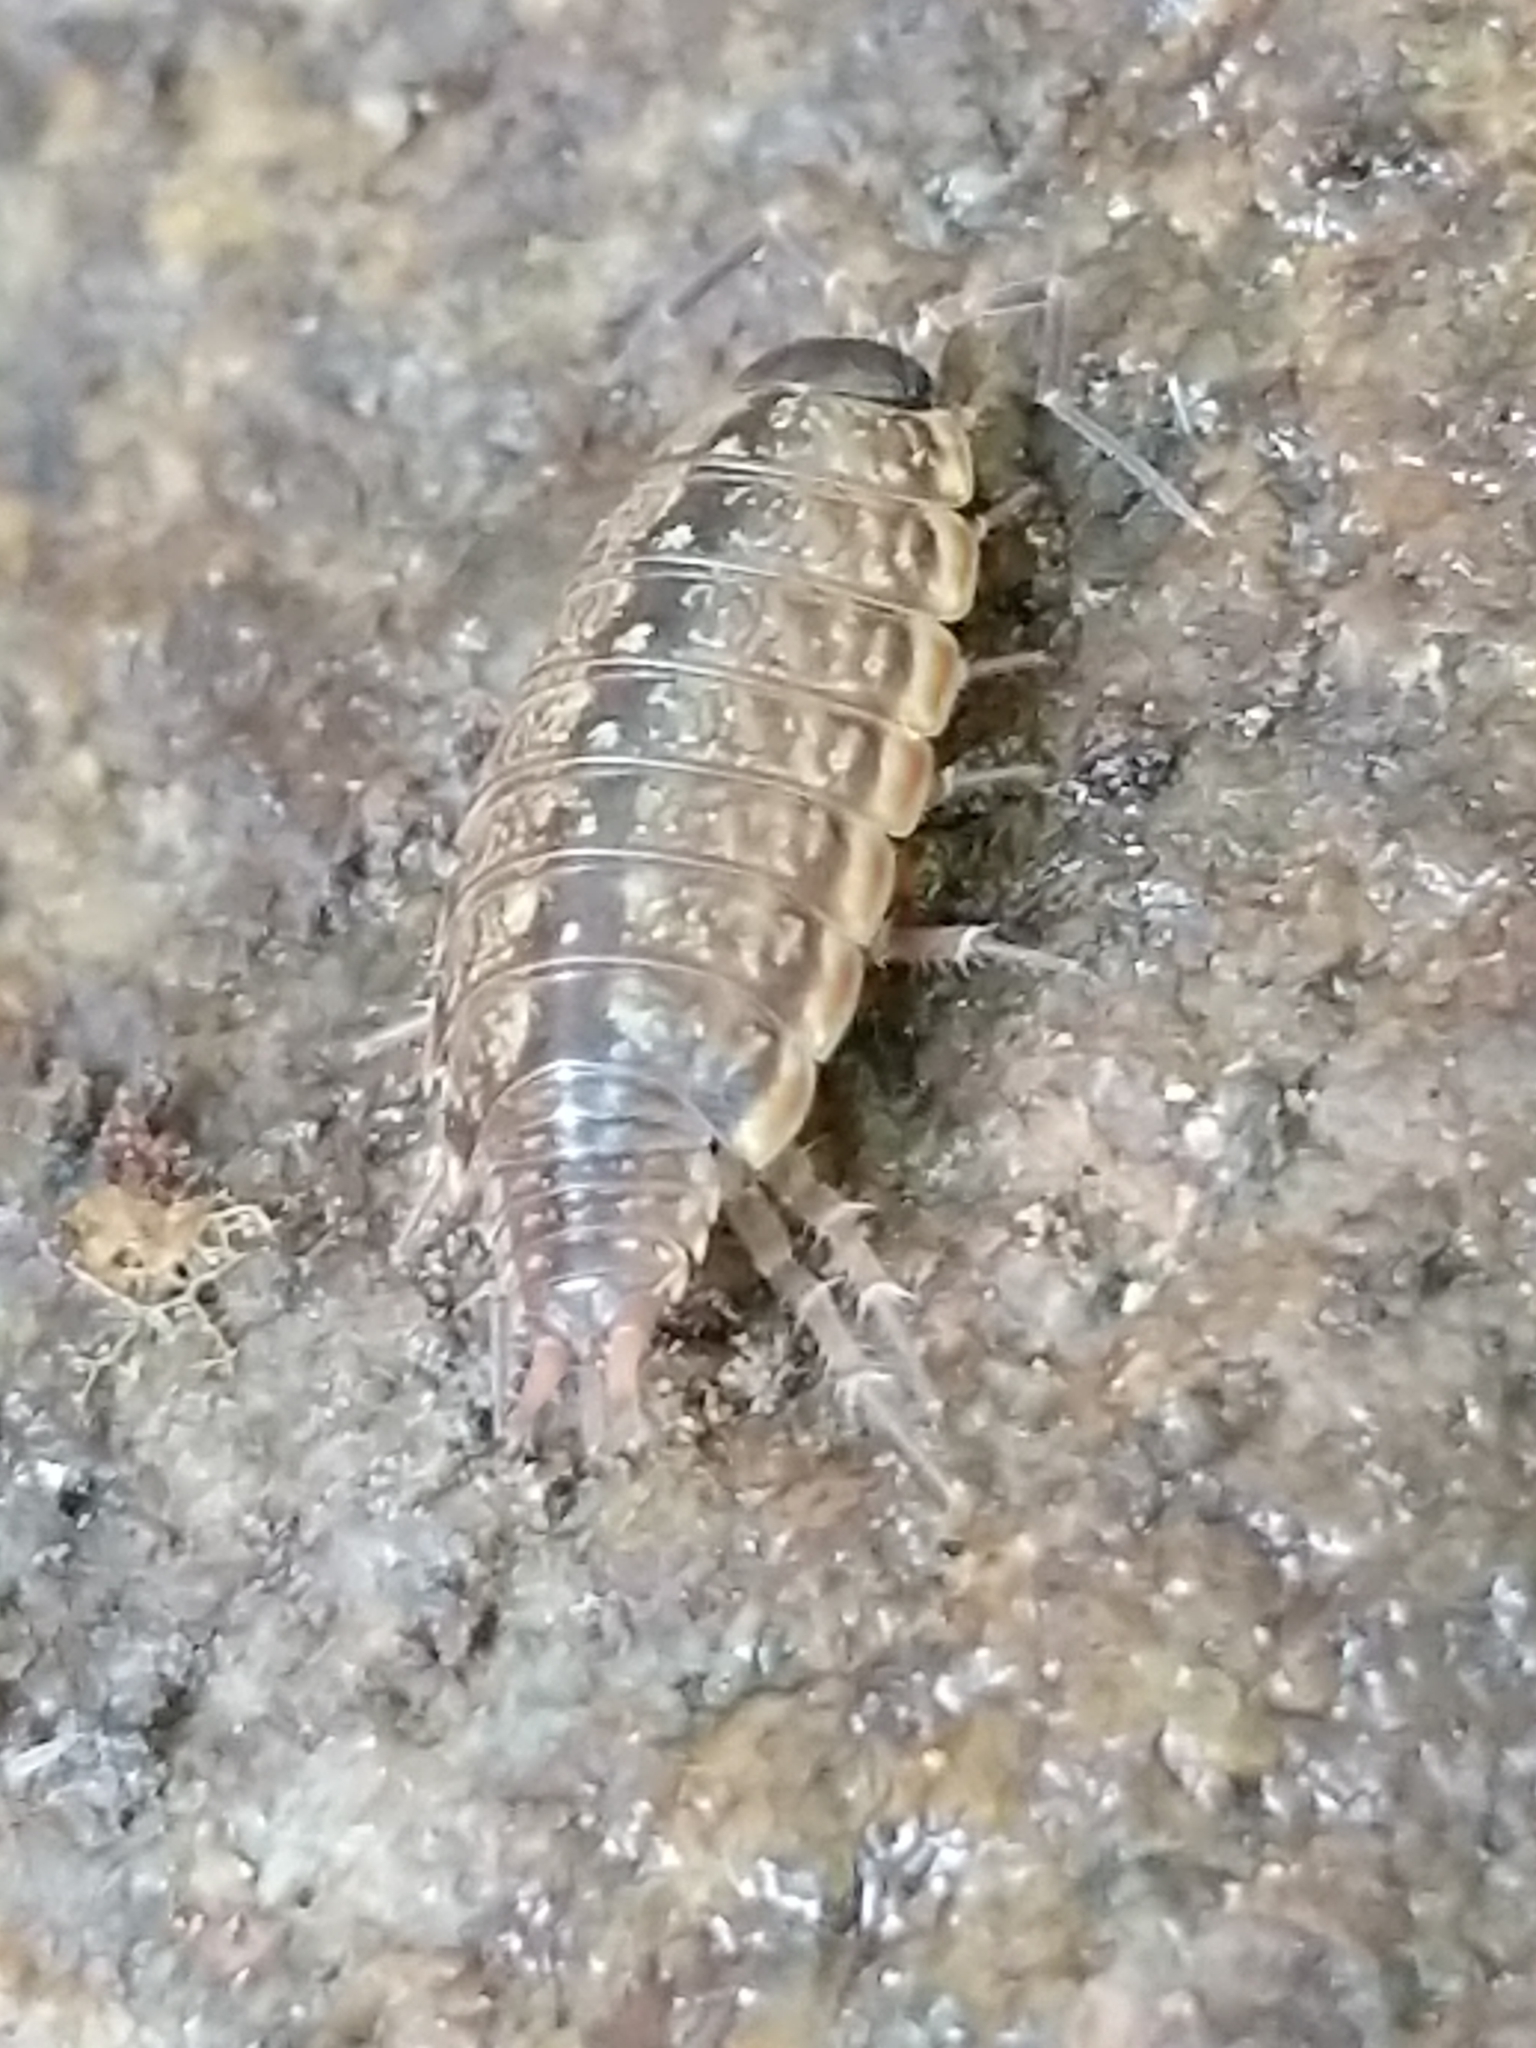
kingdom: Animalia
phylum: Arthropoda
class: Malacostraca
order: Isopoda
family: Philosciidae
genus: Philoscia
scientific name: Philoscia muscorum
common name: Common striped woodlouse
